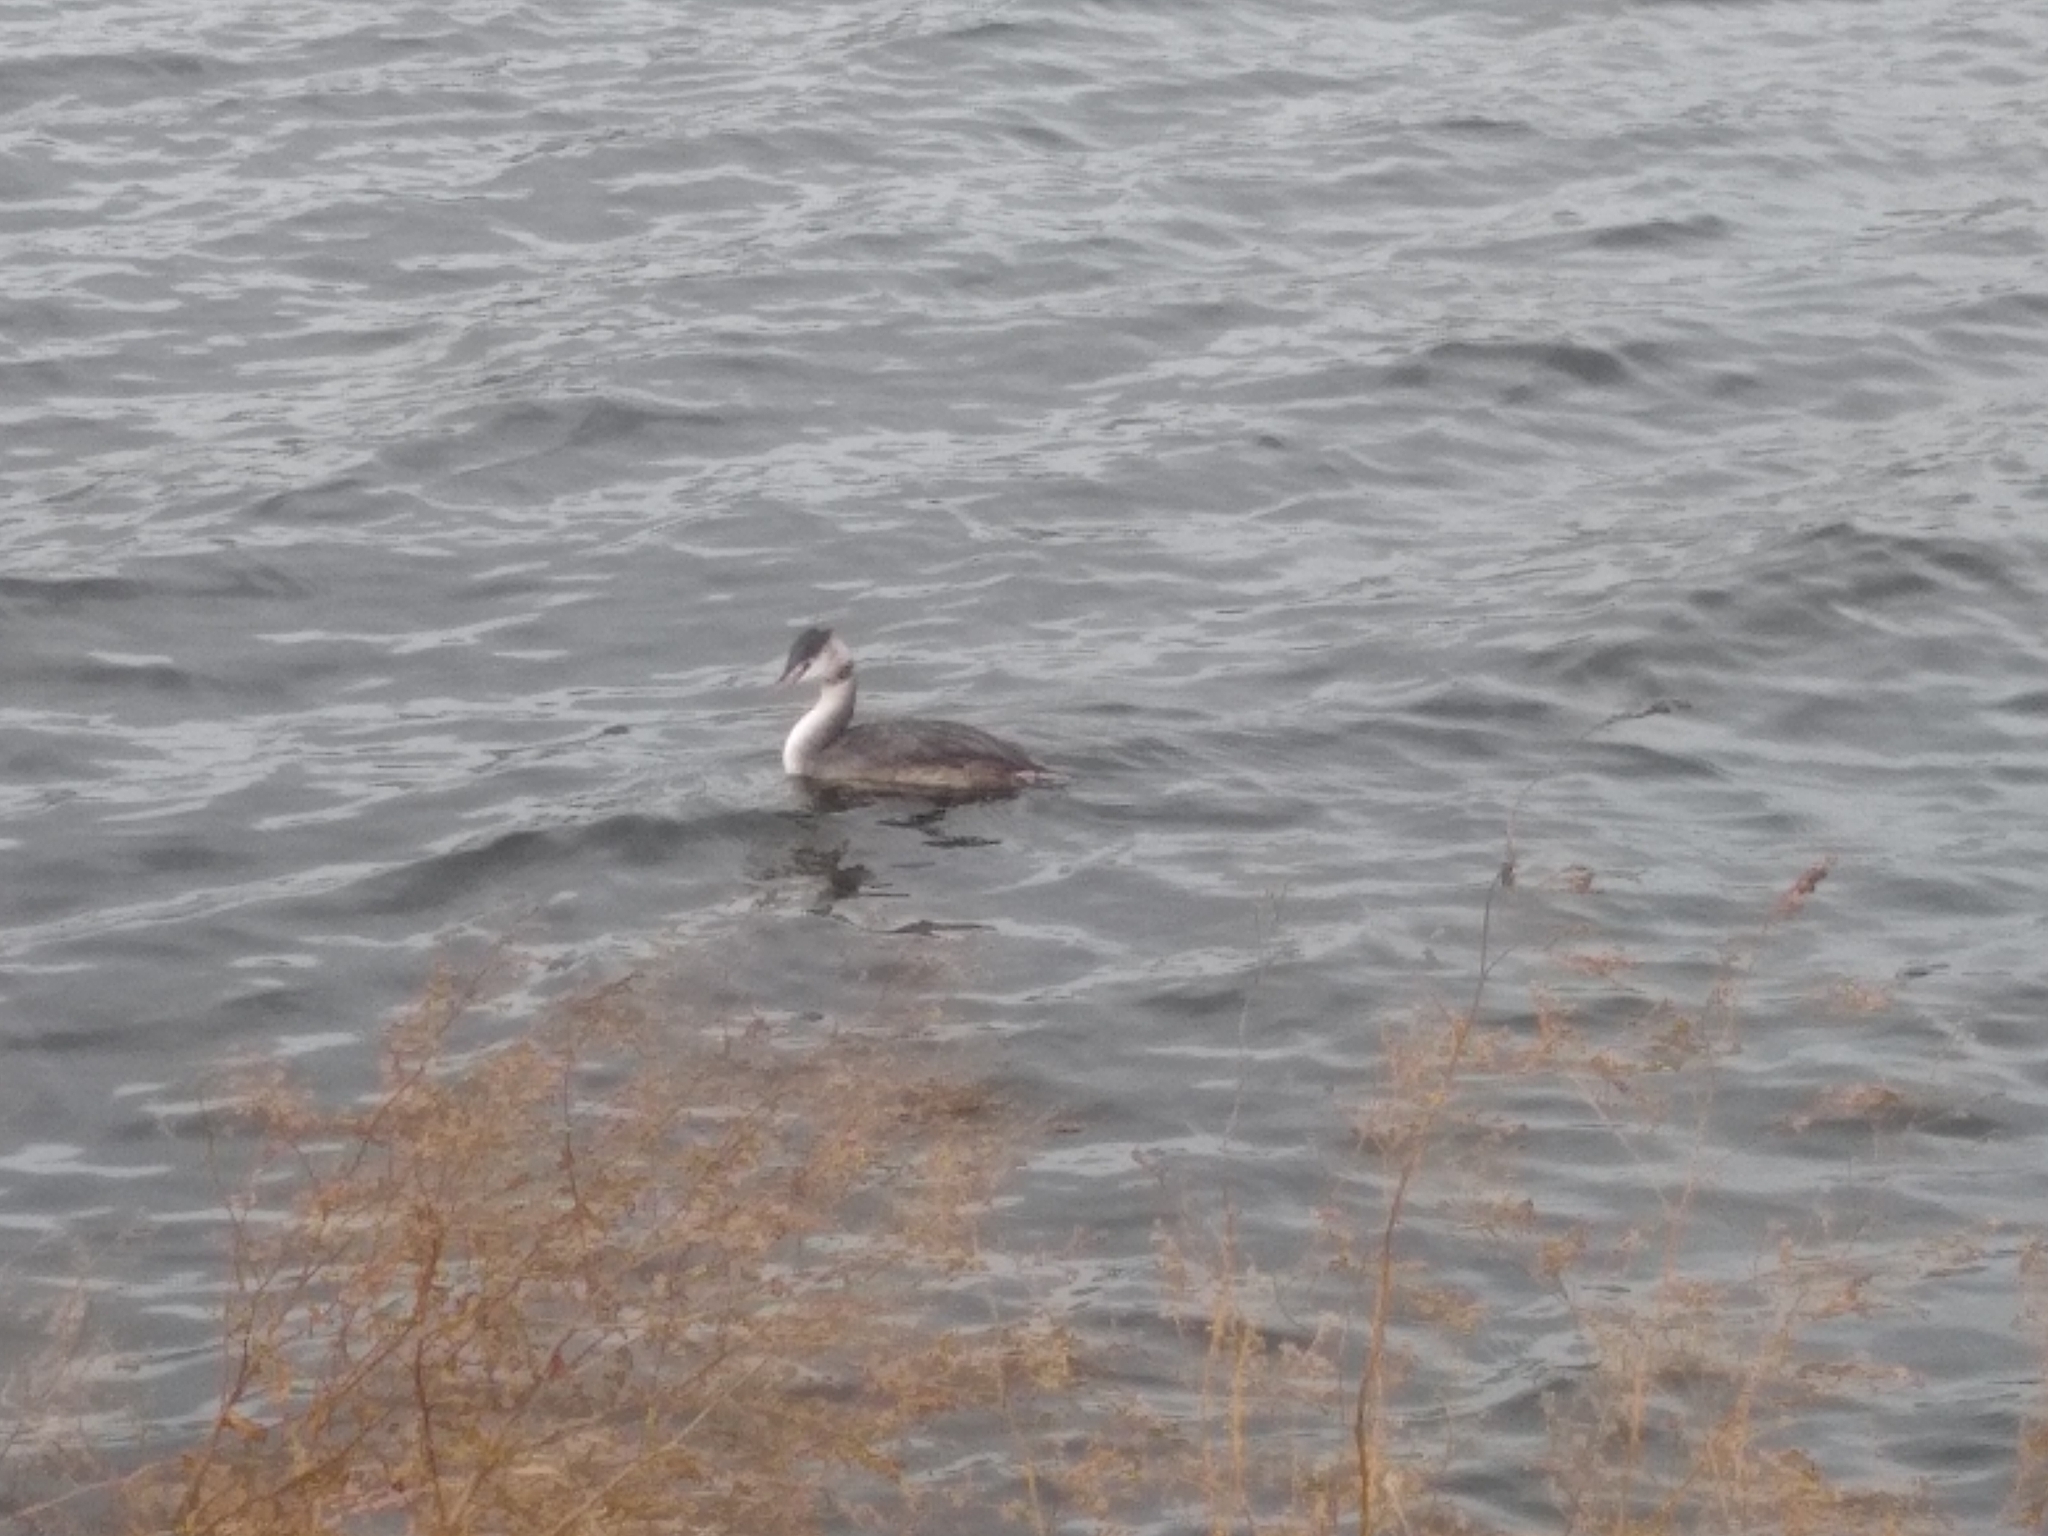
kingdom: Animalia
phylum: Chordata
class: Aves
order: Podicipediformes
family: Podicipedidae
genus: Podiceps
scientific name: Podiceps cristatus
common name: Great crested grebe
